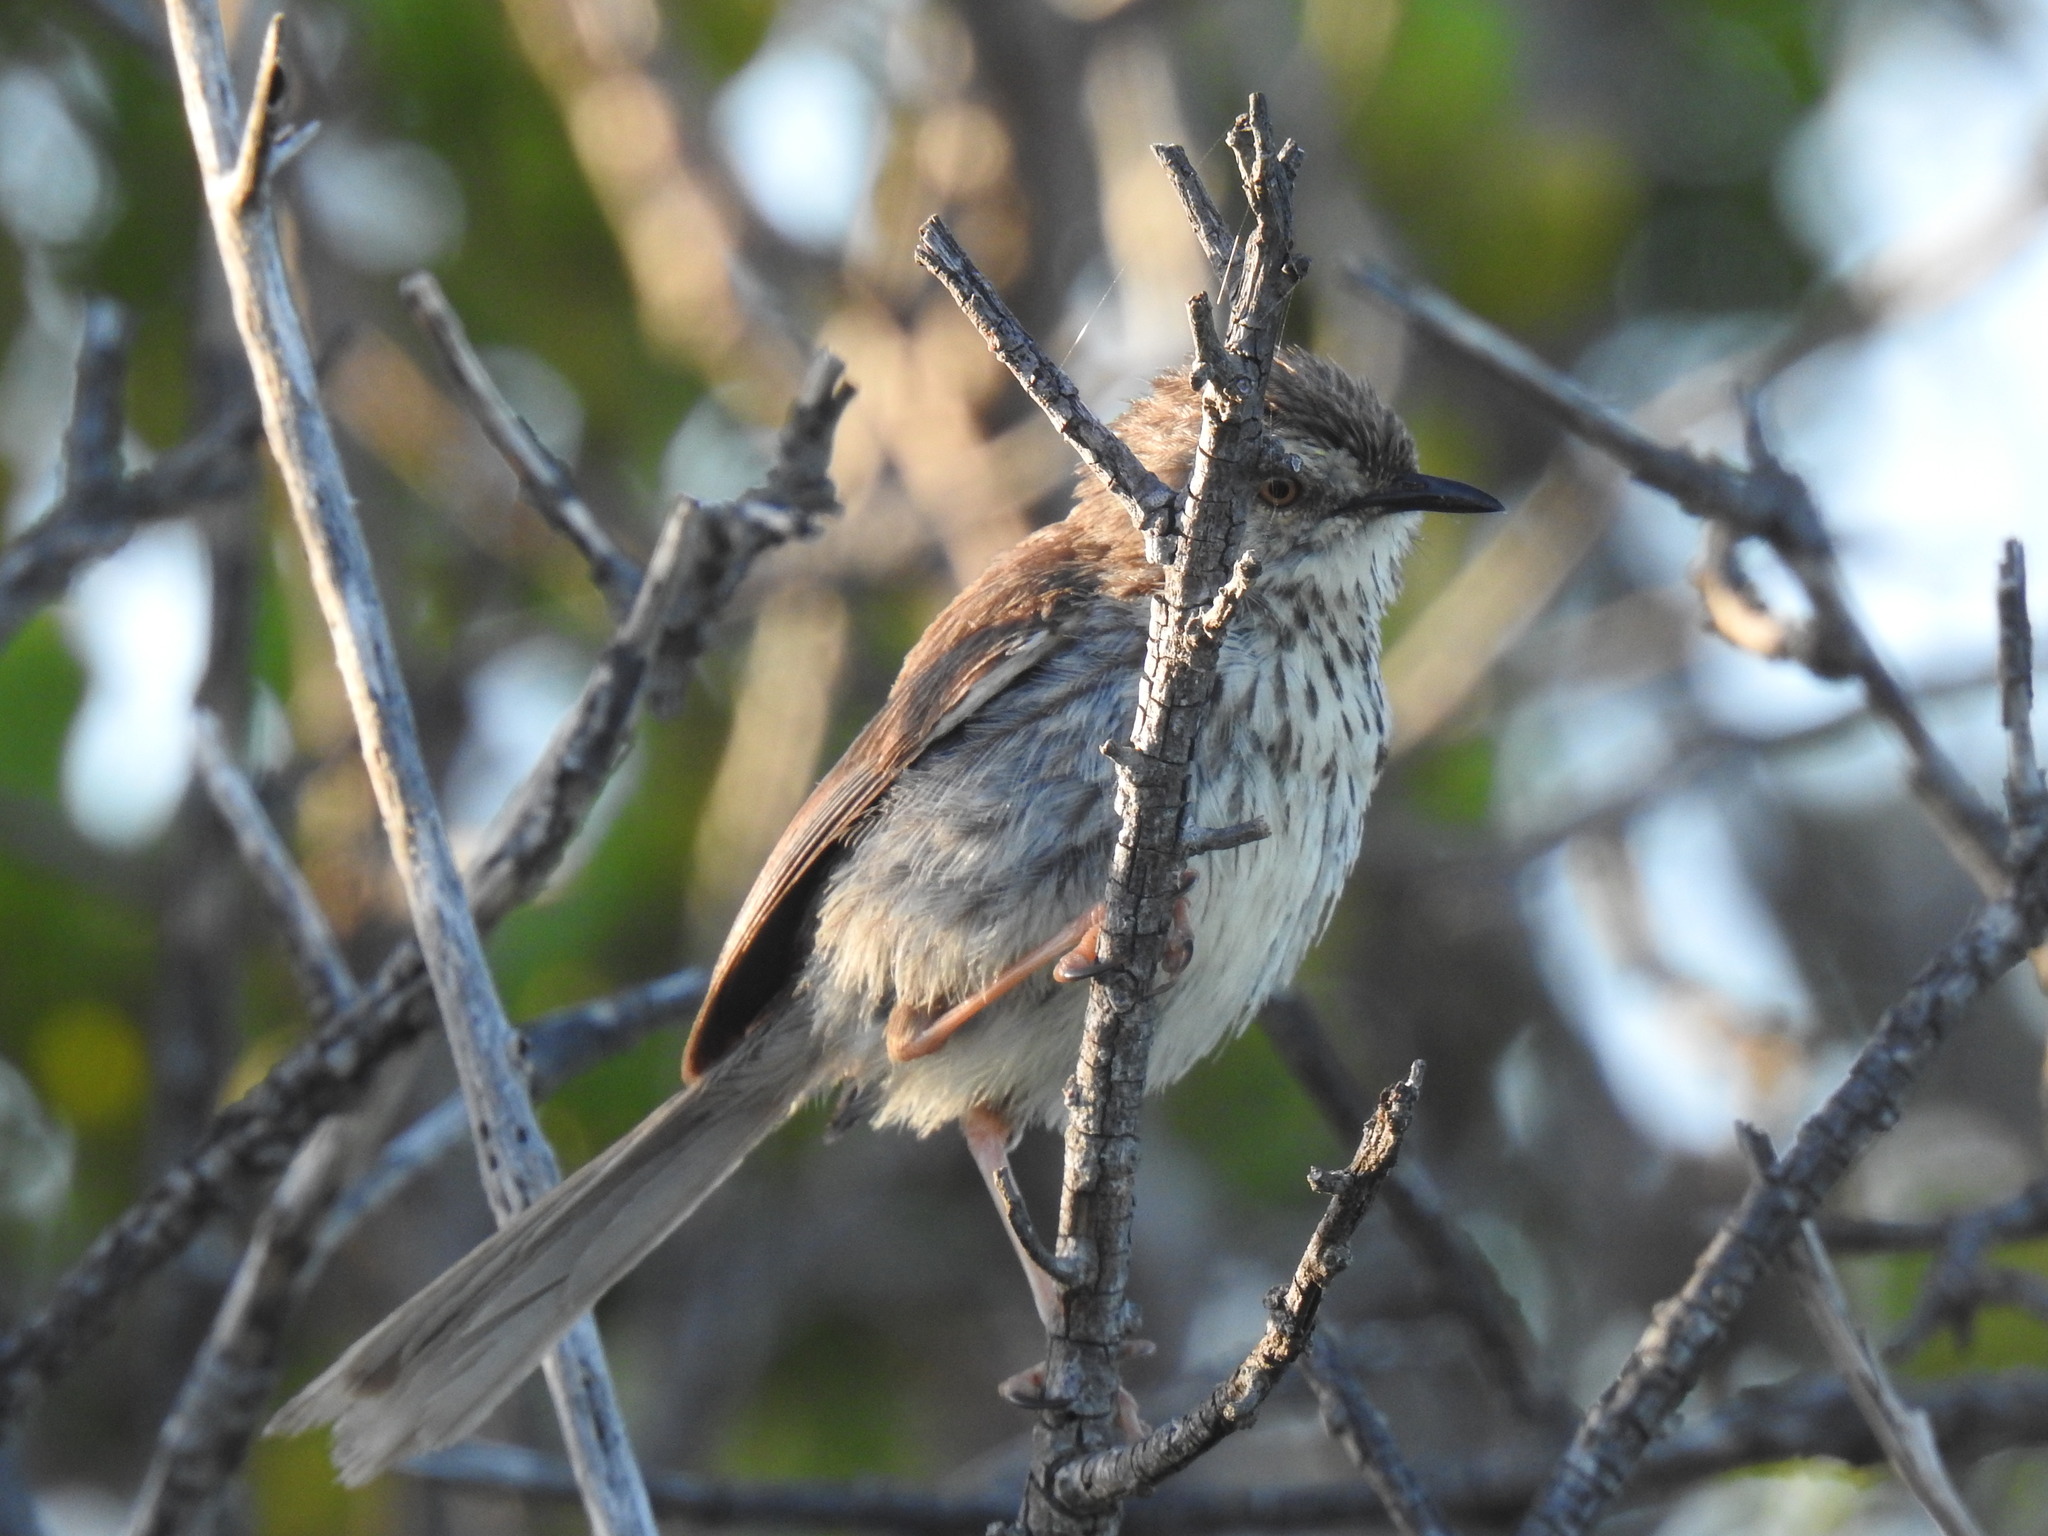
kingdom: Animalia
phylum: Chordata
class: Aves
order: Passeriformes
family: Cisticolidae
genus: Prinia
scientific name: Prinia maculosa
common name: Karoo prinia
